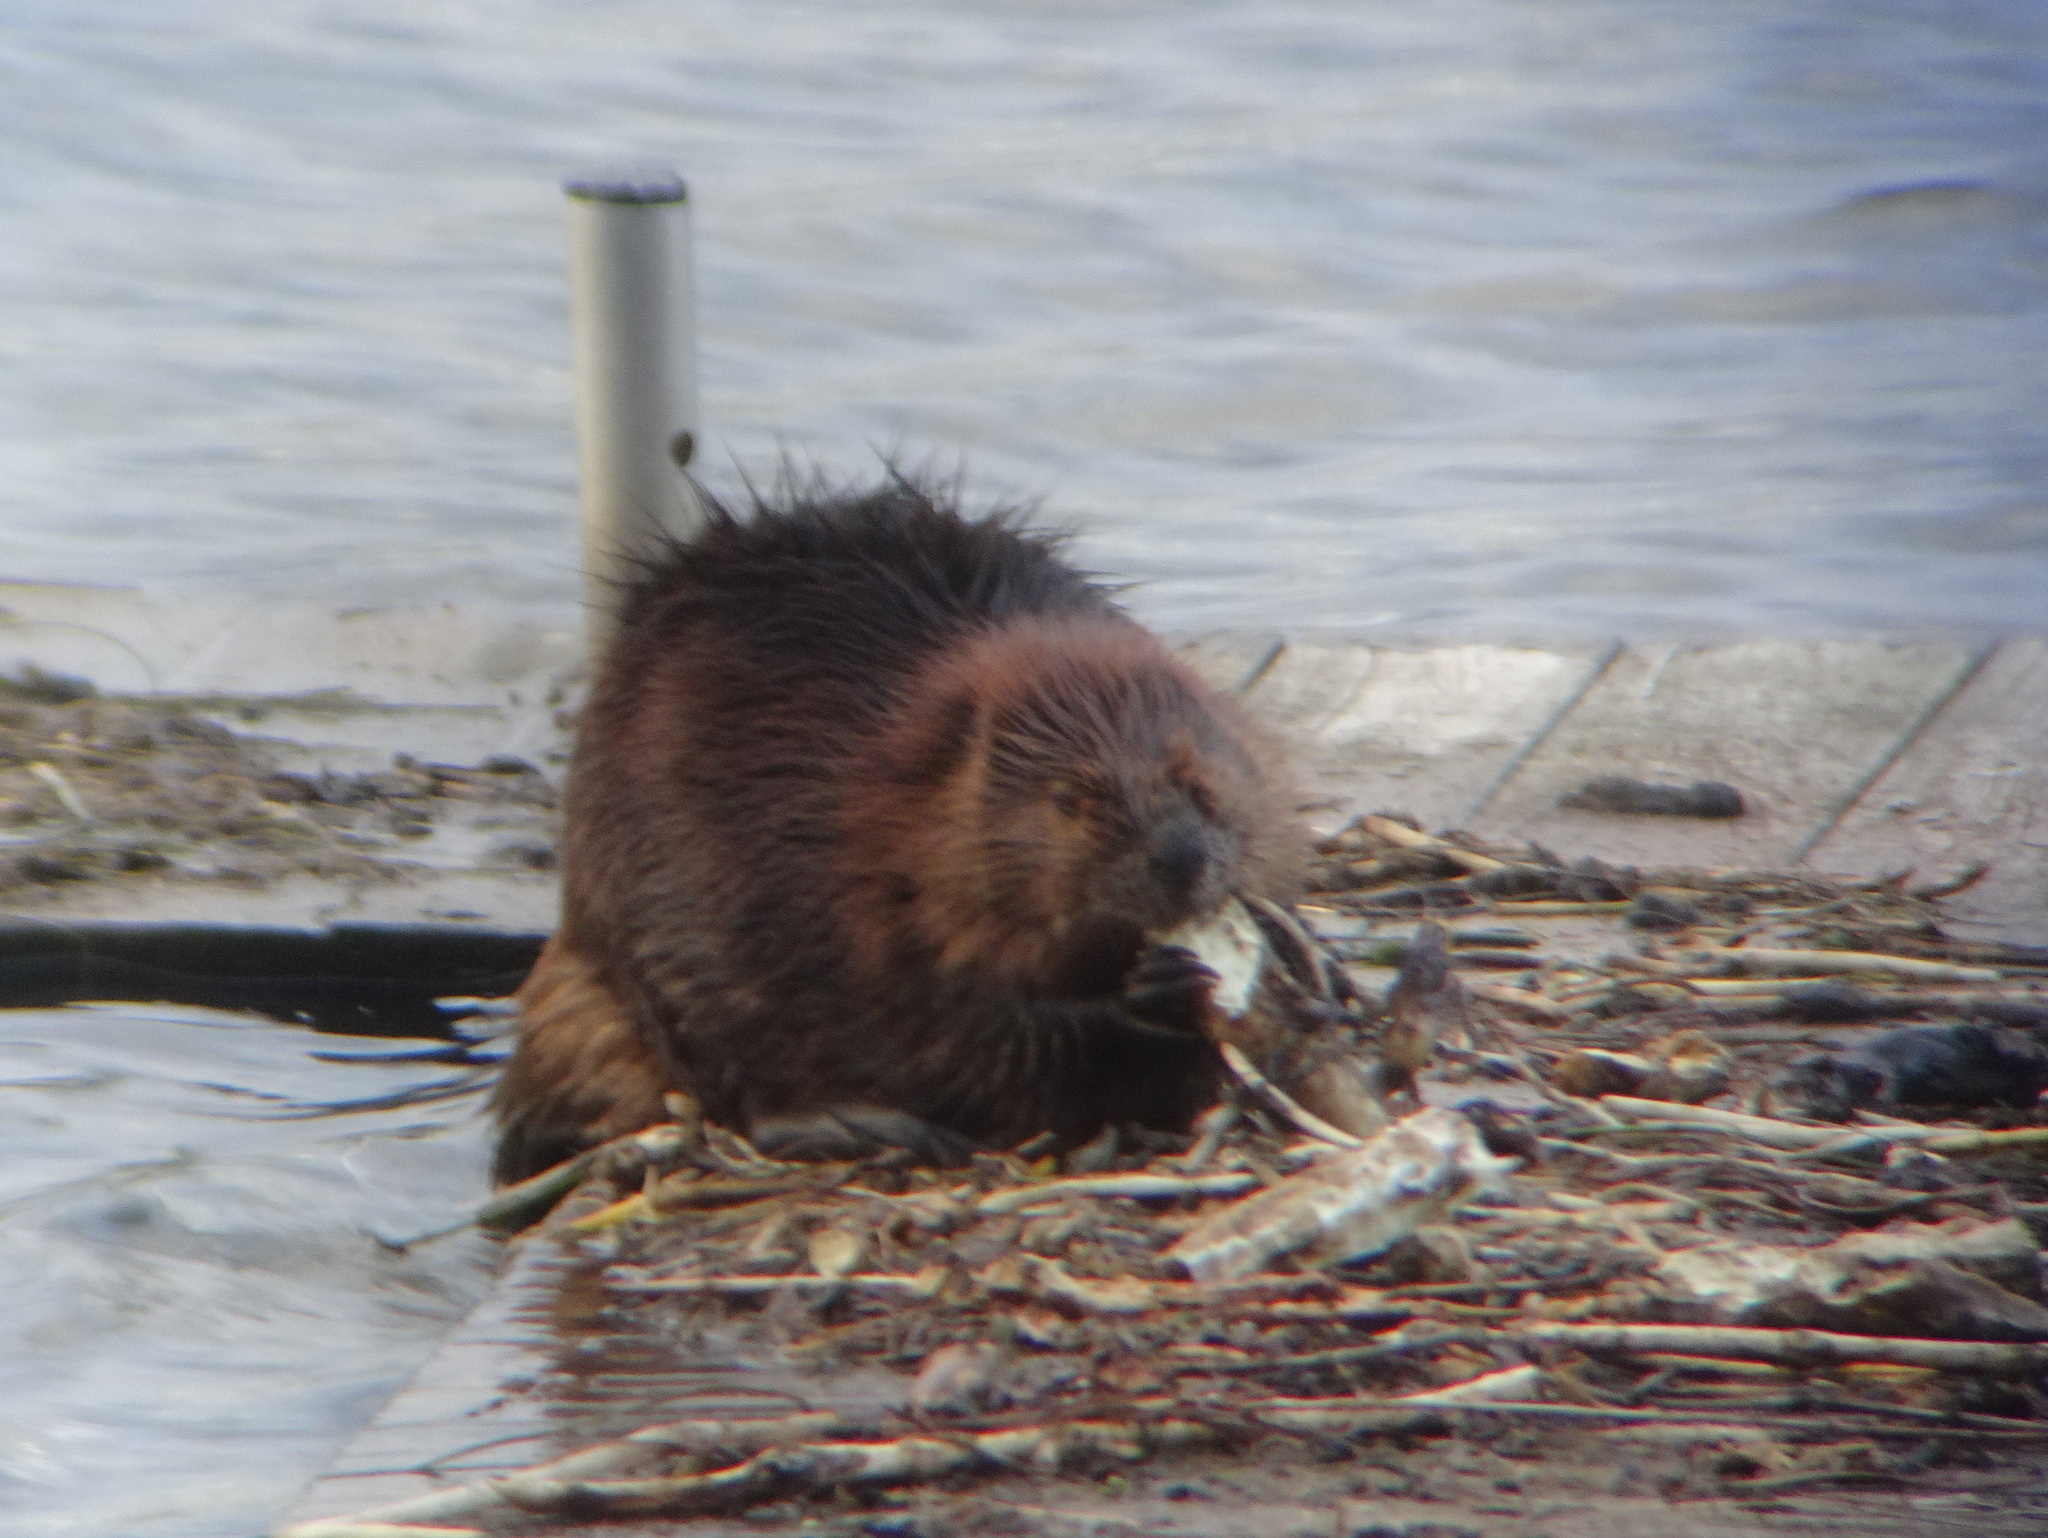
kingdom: Animalia
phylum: Chordata
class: Mammalia
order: Rodentia
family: Castoridae
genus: Castor
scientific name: Castor canadensis
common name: American beaver
